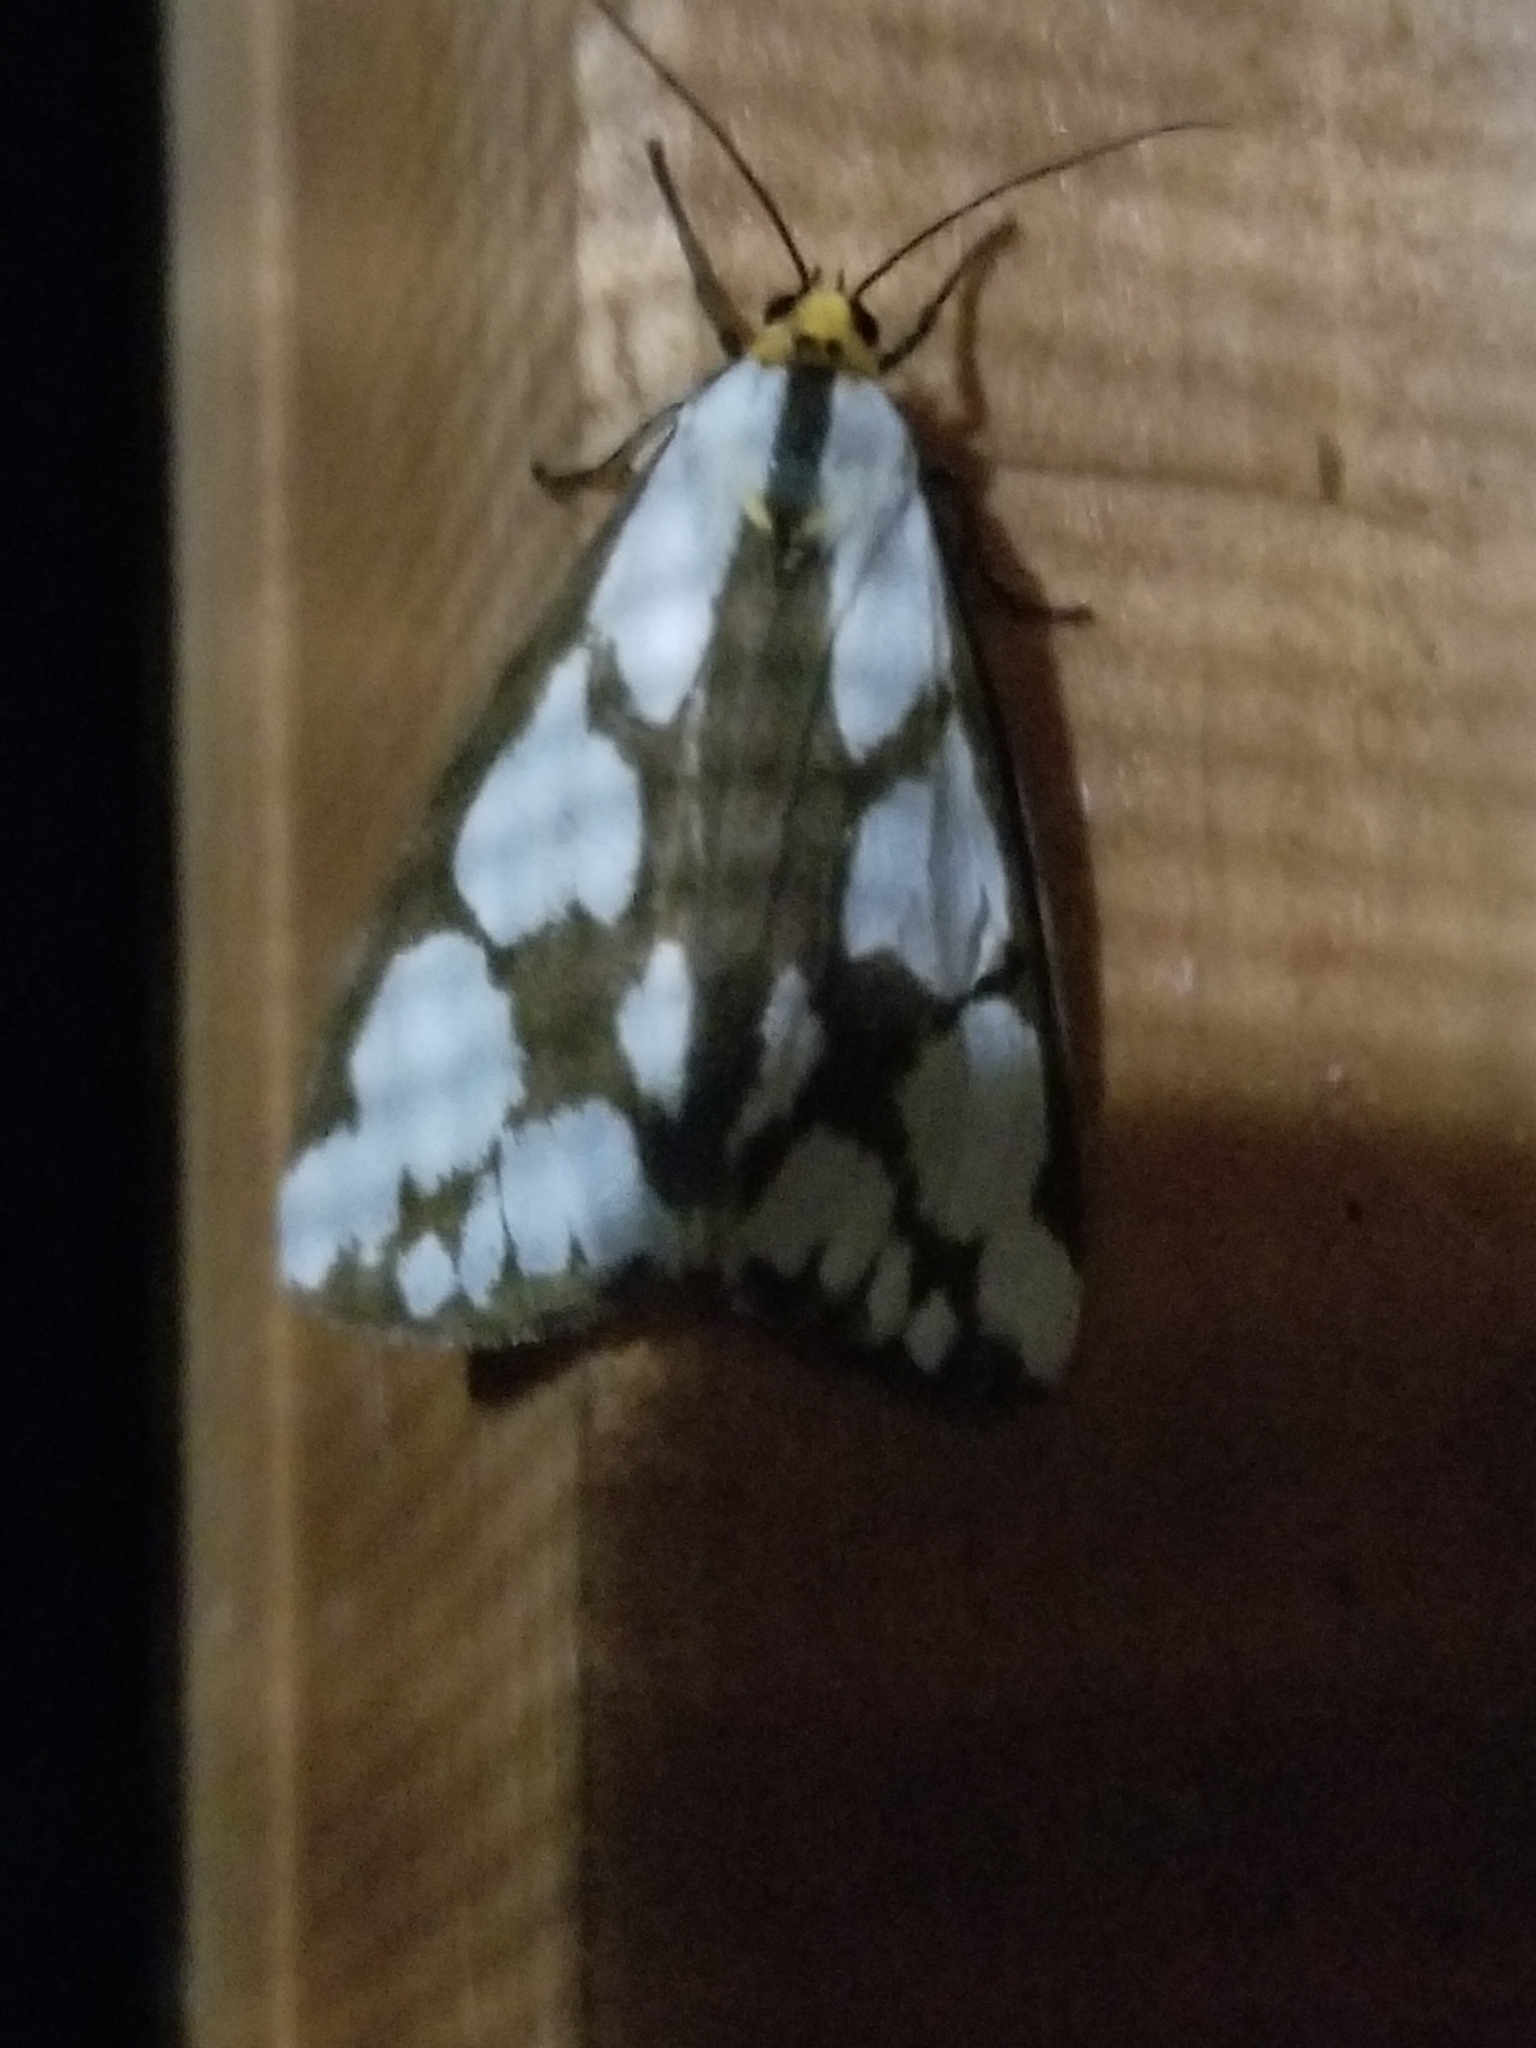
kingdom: Animalia
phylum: Arthropoda
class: Insecta
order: Lepidoptera
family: Erebidae
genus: Haploa
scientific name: Haploa confusa
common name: Confused haploa moth
